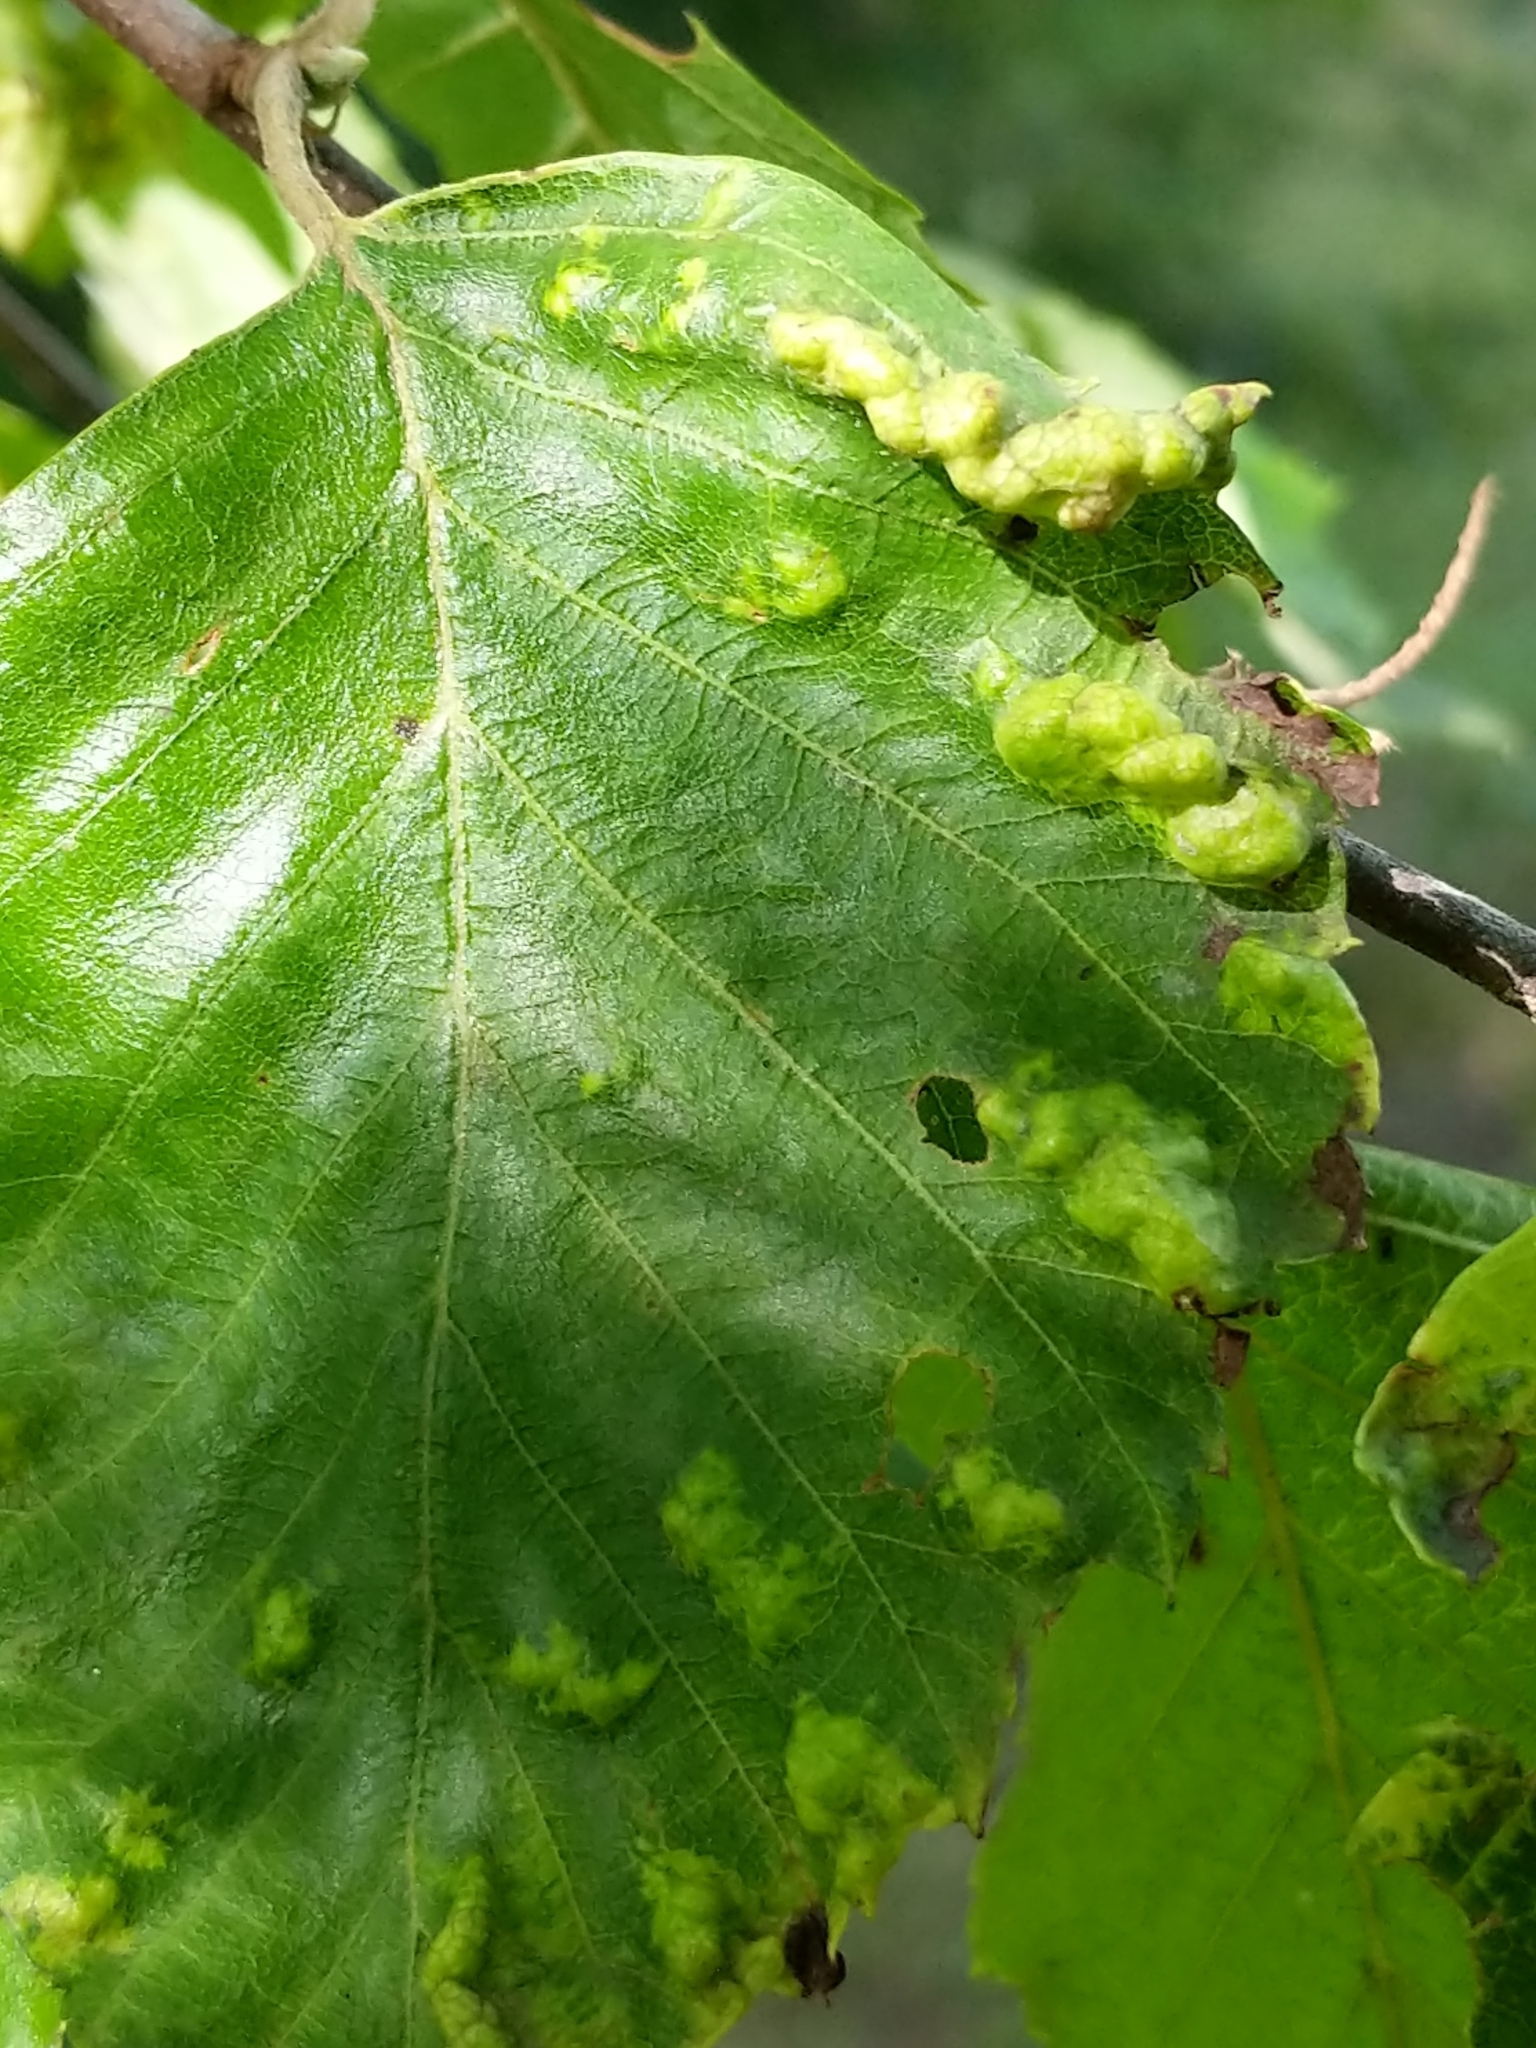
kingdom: Animalia
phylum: Arthropoda
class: Insecta
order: Hemiptera
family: Aphididae
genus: Hamamelistes
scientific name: Hamamelistes spinosus
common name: Witch hazel gall aphid
